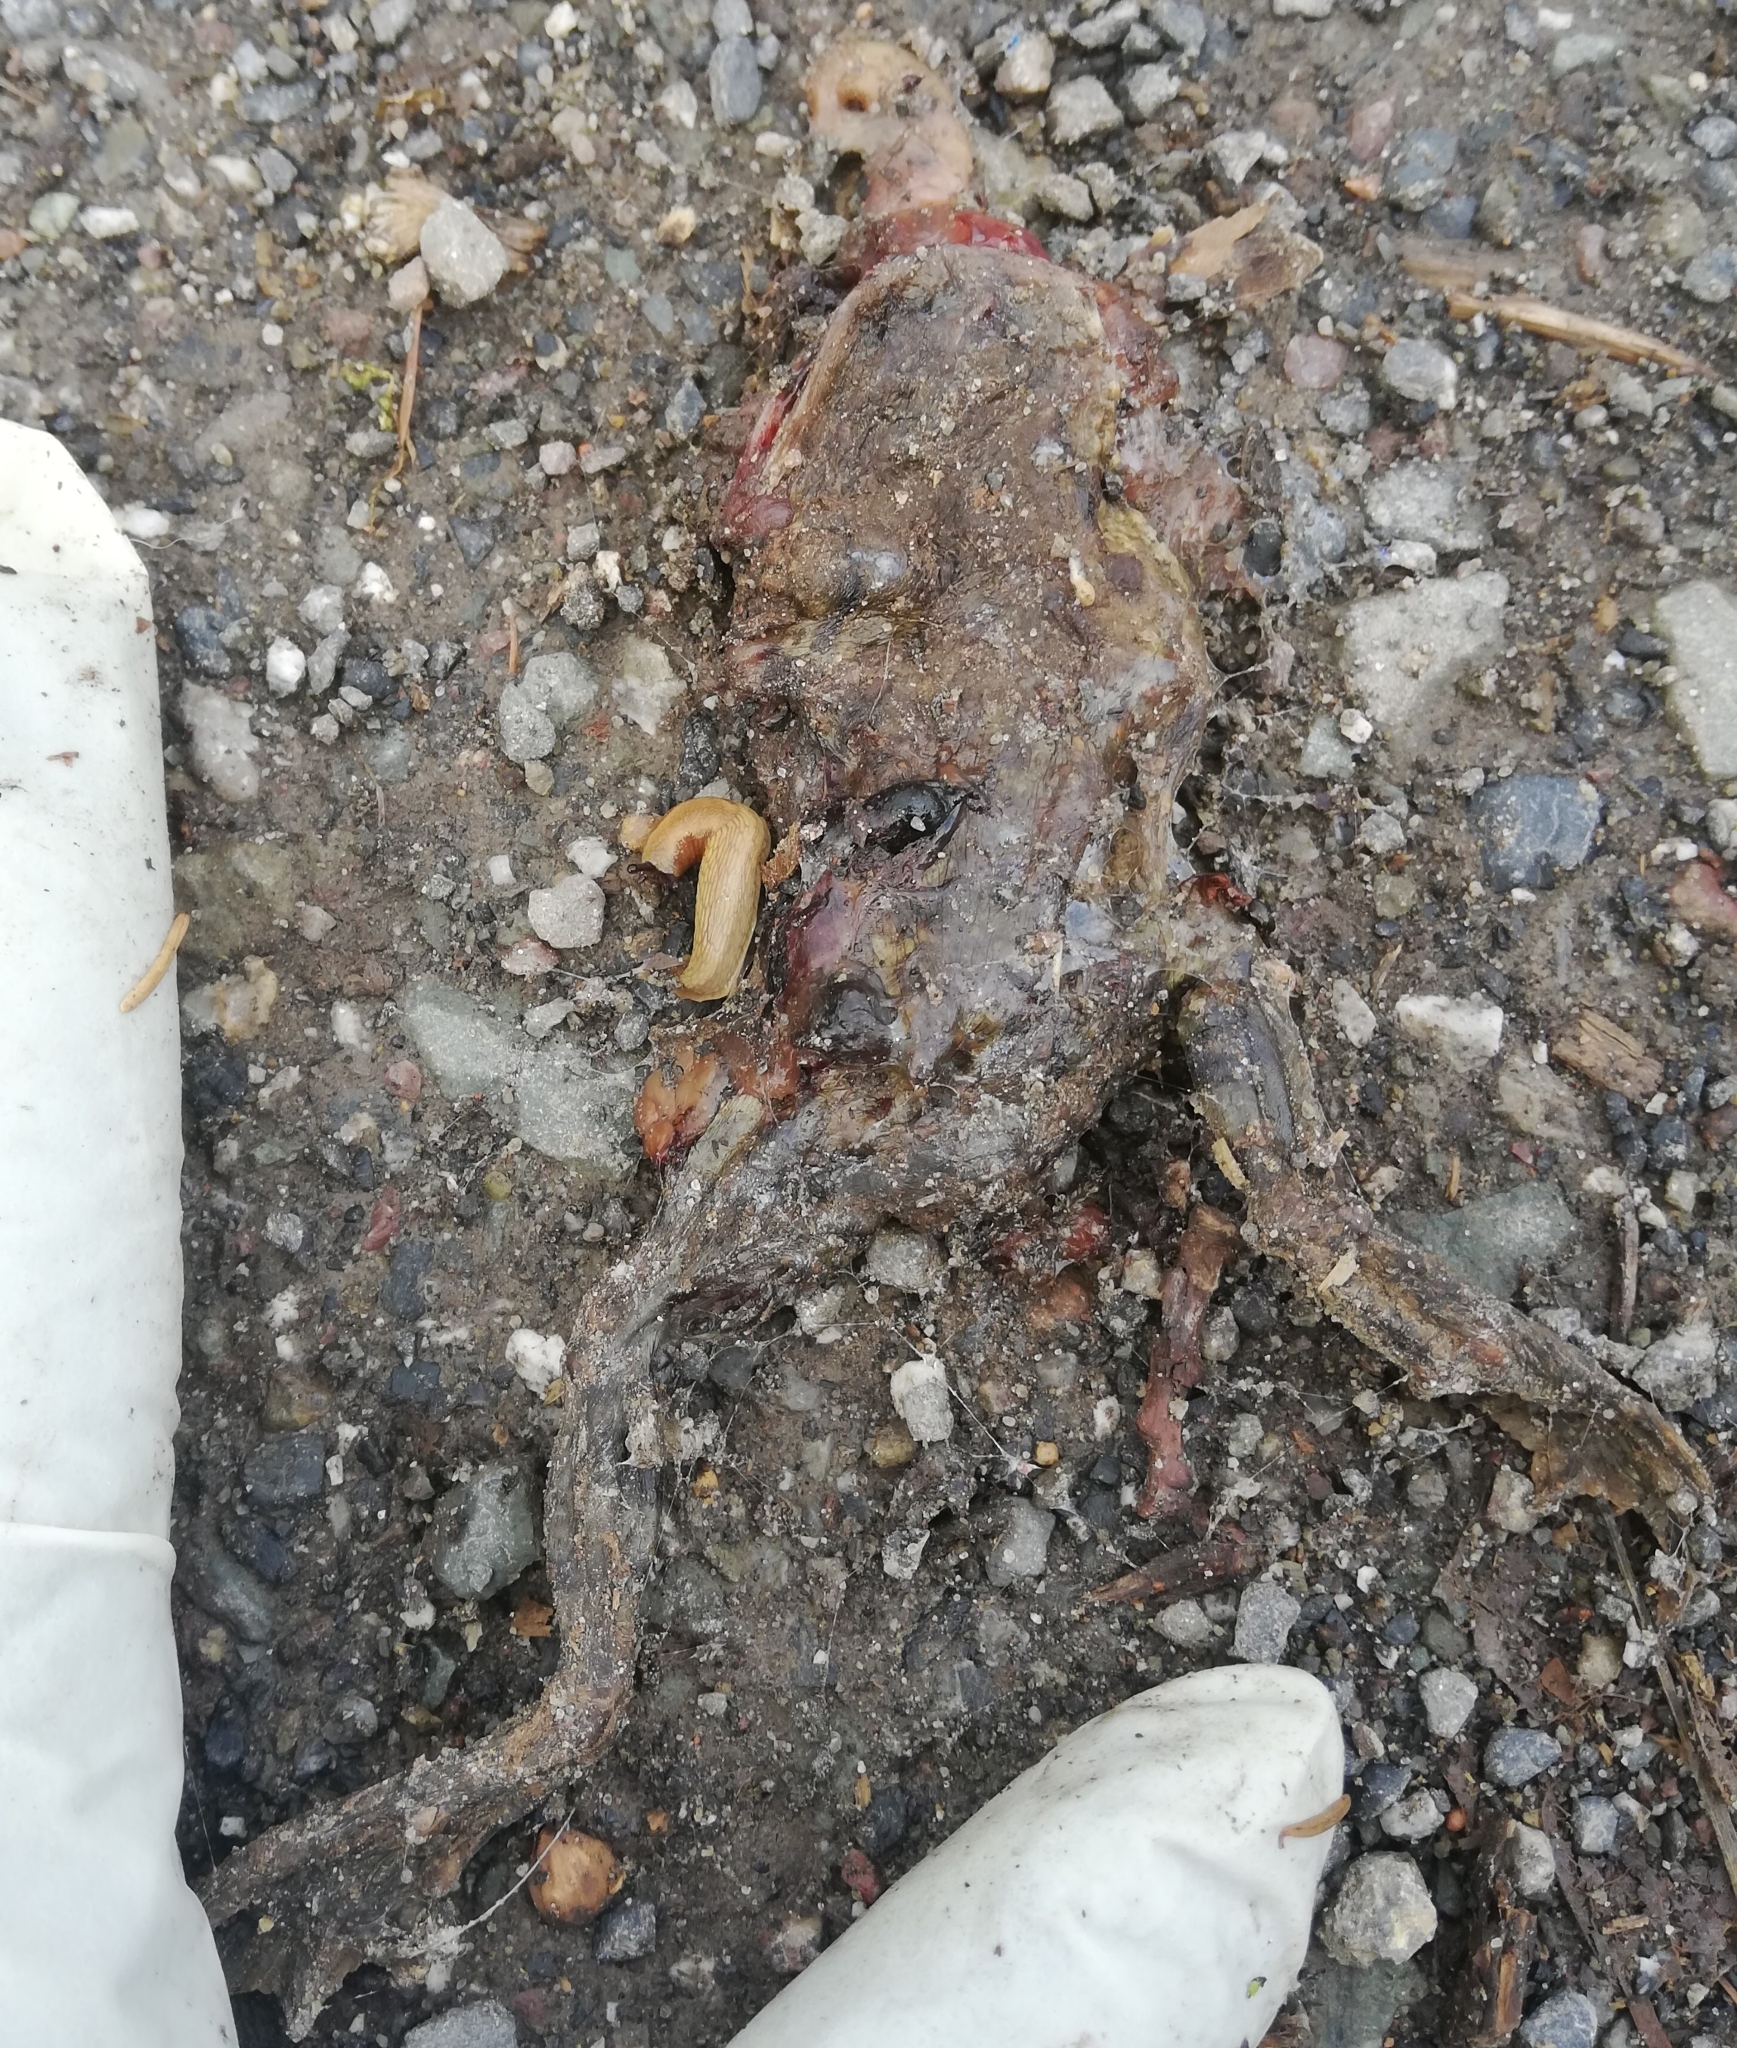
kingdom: Animalia
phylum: Chordata
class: Amphibia
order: Anura
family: Bufonidae
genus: Bufo
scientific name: Bufo bufo
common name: Common toad
